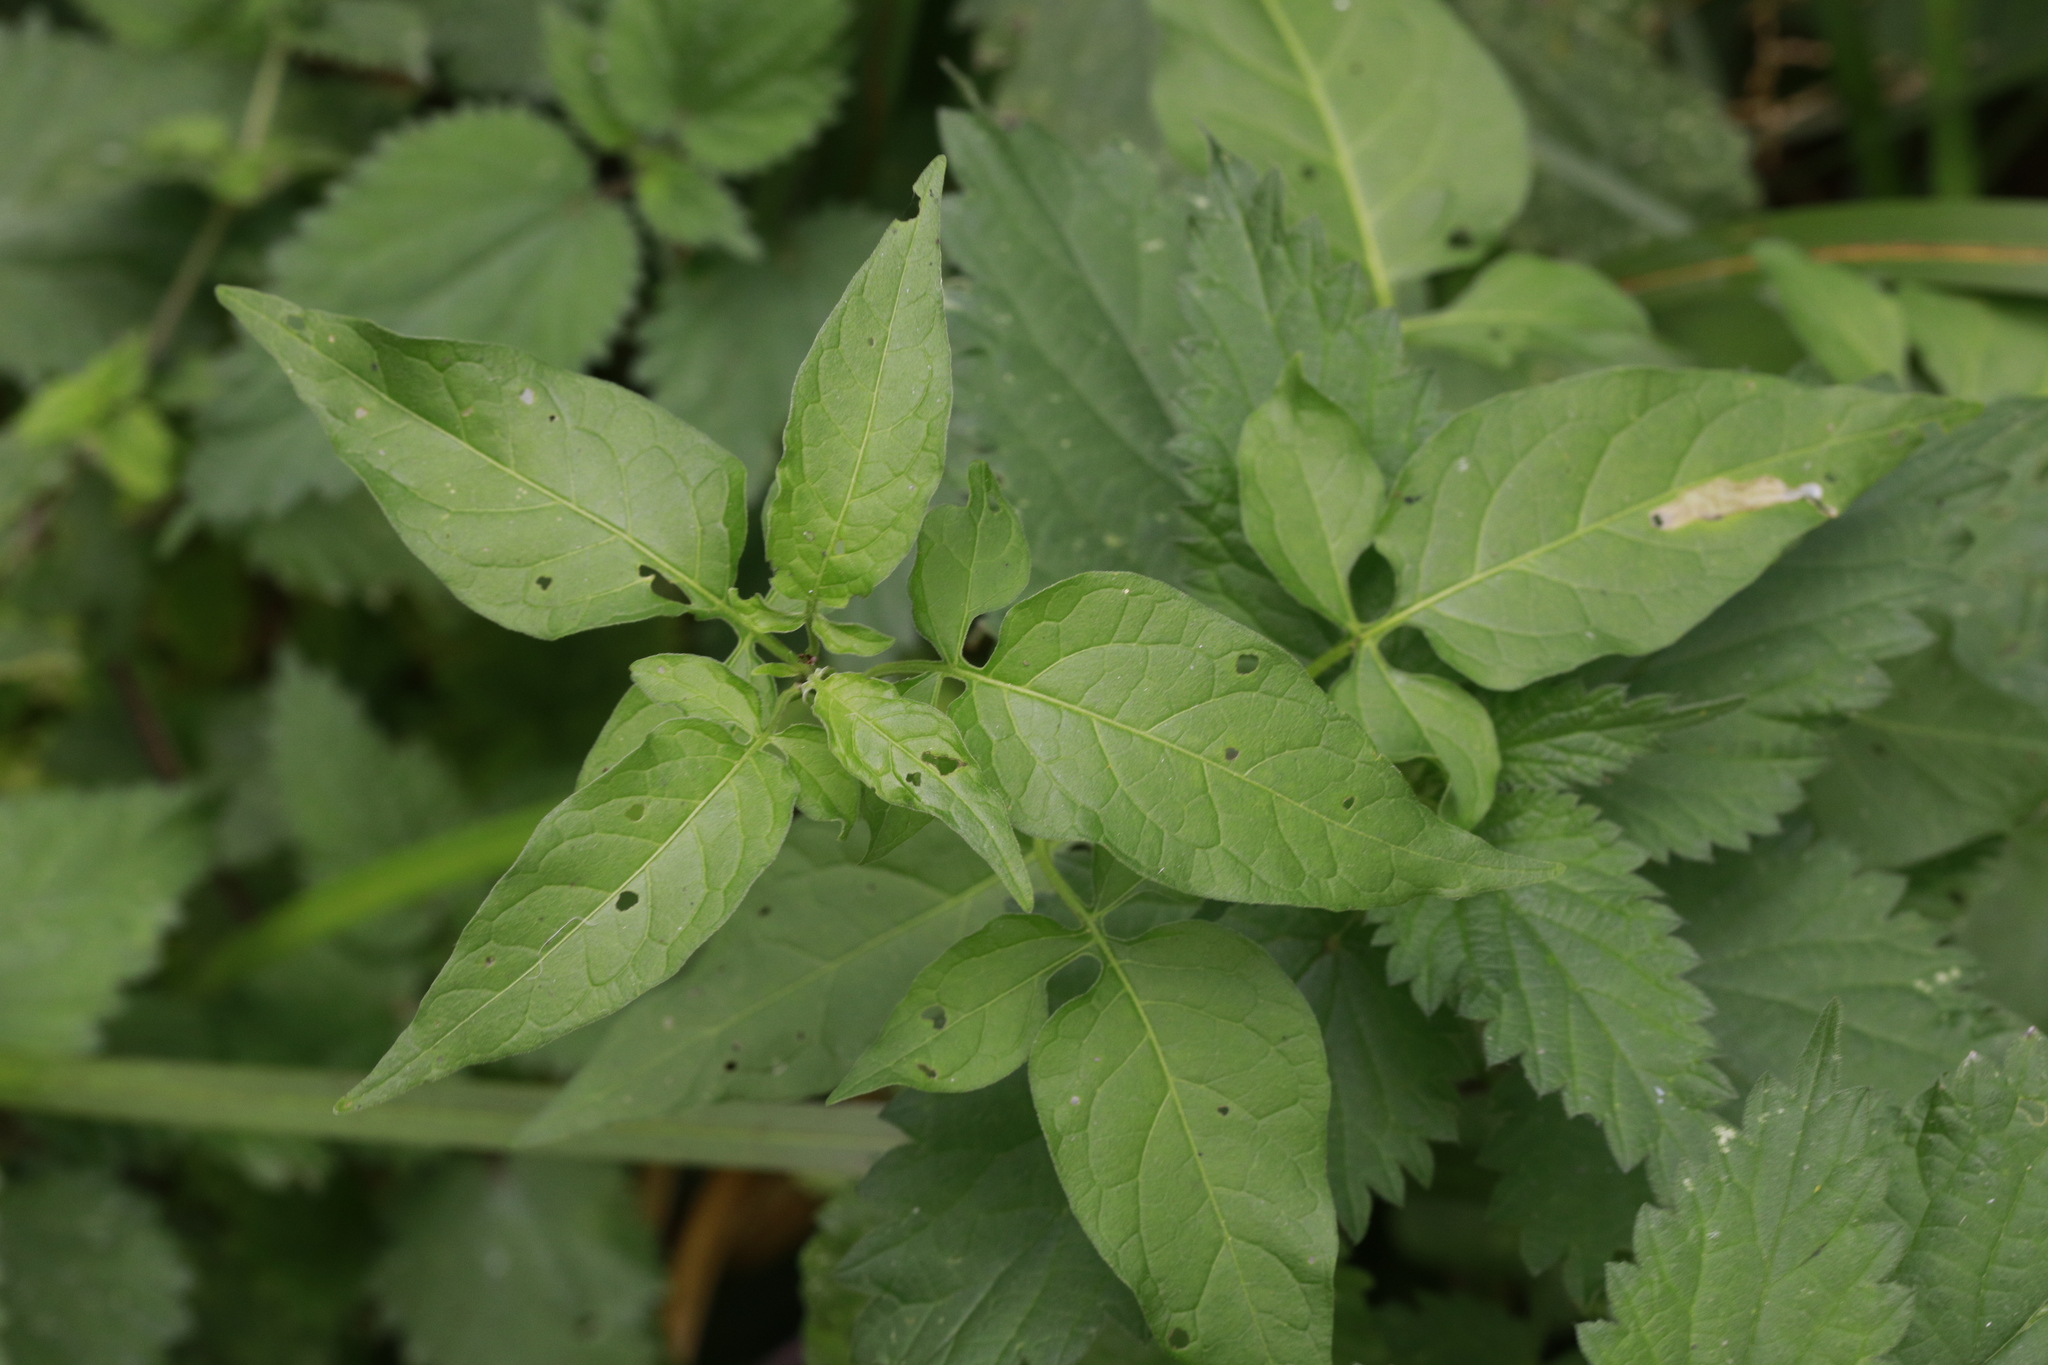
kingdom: Plantae
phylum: Tracheophyta
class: Magnoliopsida
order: Solanales
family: Solanaceae
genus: Solanum
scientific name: Solanum dulcamara
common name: Climbing nightshade
